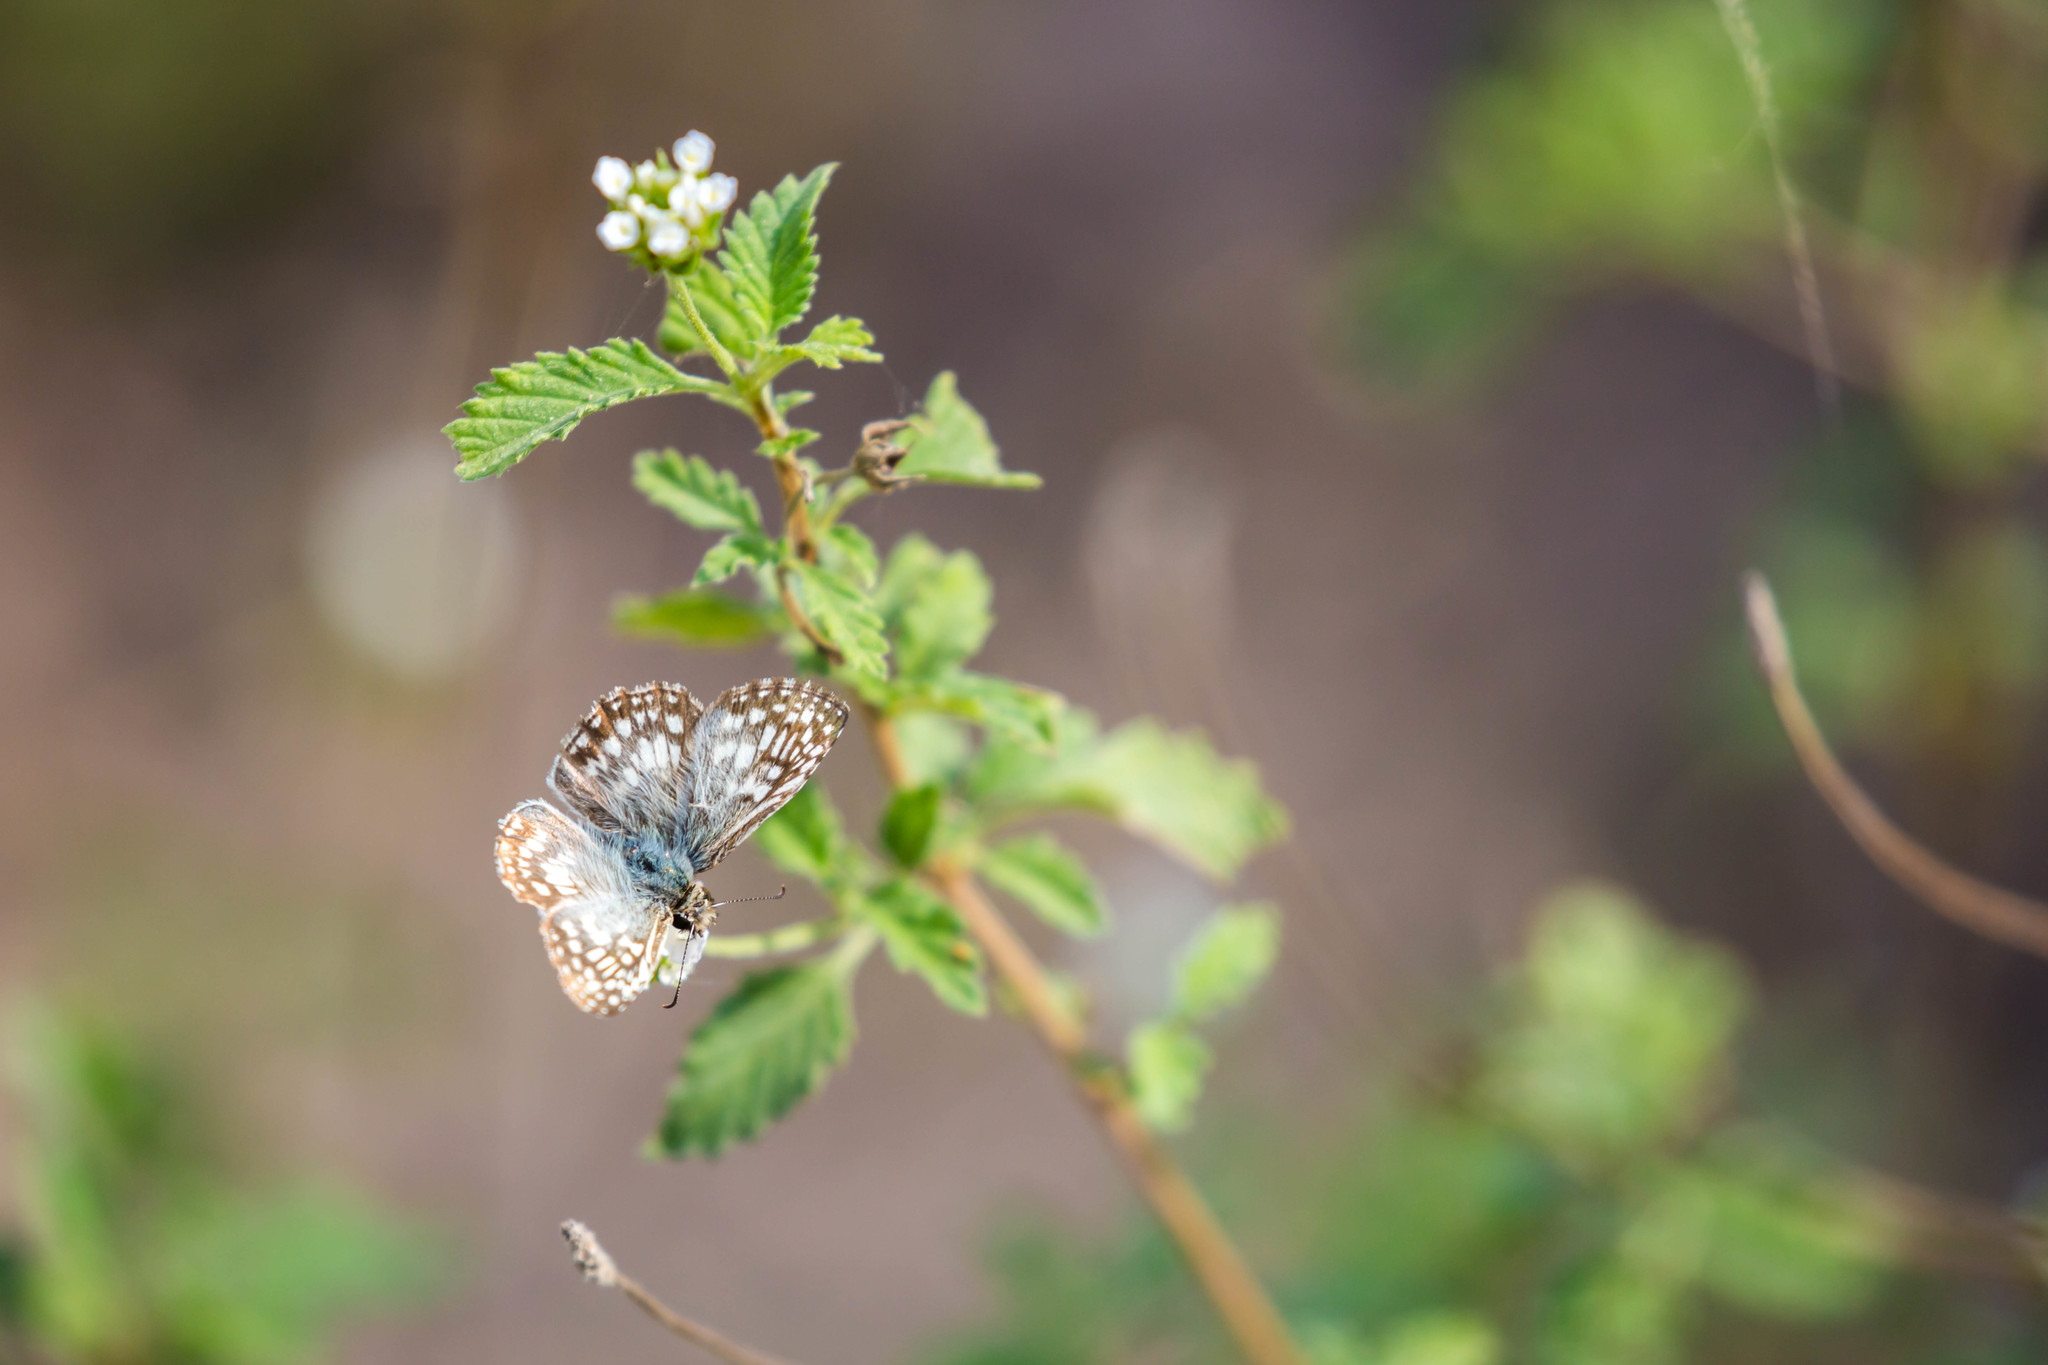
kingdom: Animalia
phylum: Arthropoda
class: Insecta
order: Lepidoptera
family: Hesperiidae
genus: Pyrgus
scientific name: Pyrgus oileus
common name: Tropical checkered-skipper
